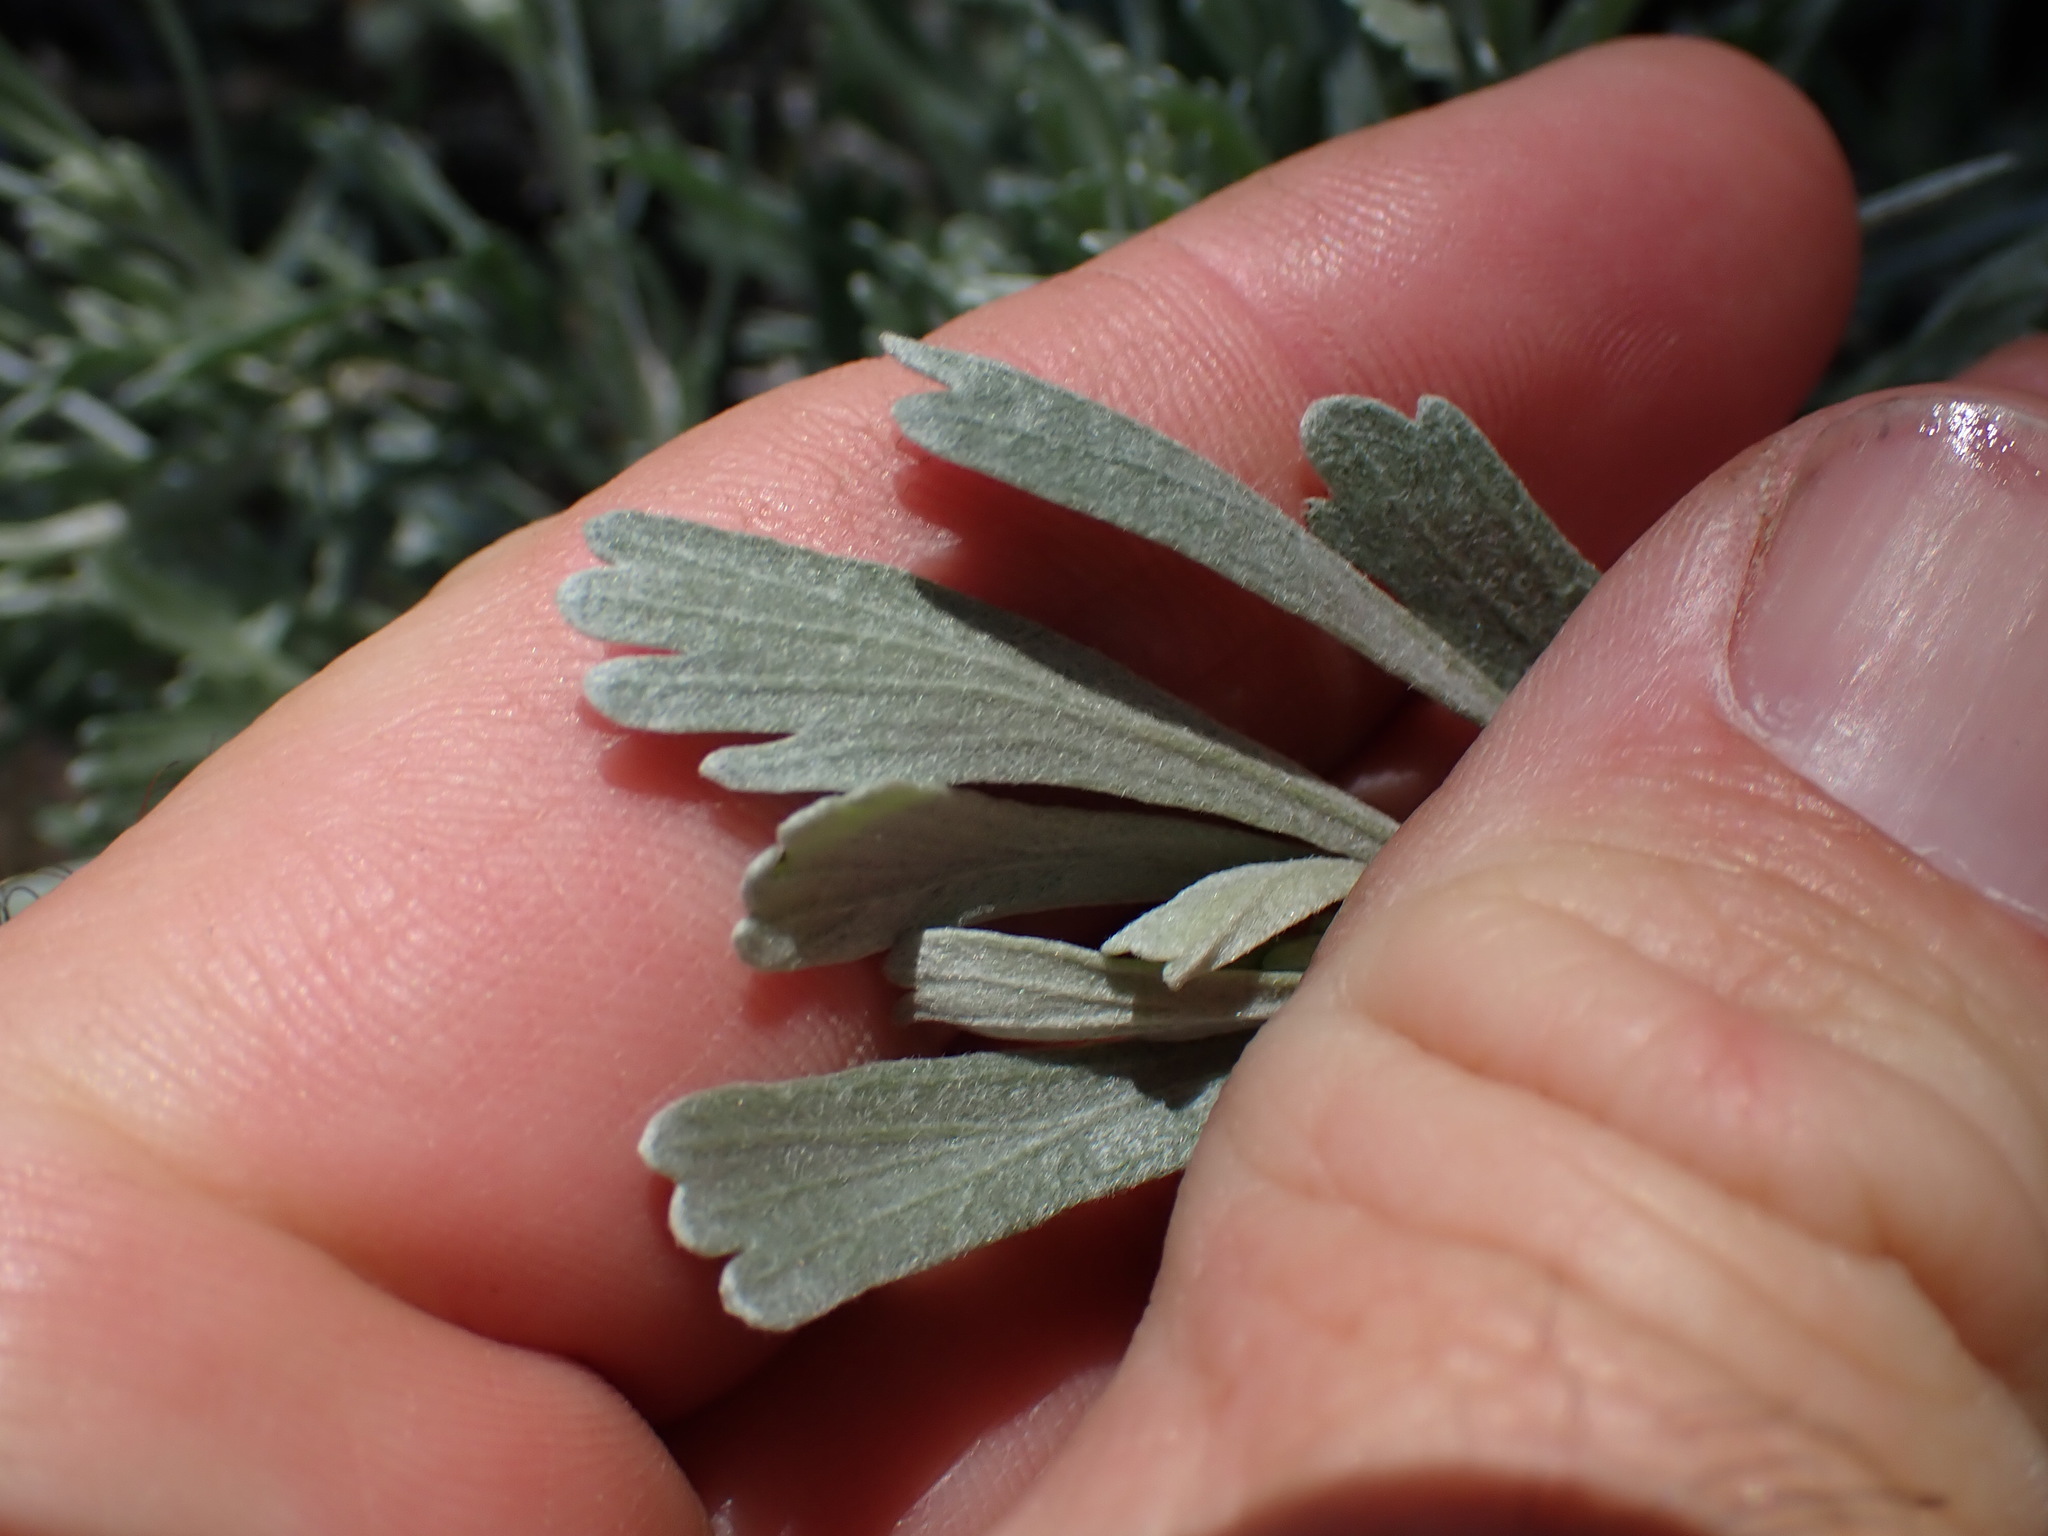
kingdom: Plantae
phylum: Tracheophyta
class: Magnoliopsida
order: Asterales
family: Asteraceae
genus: Artemisia
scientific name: Artemisia tridentata
